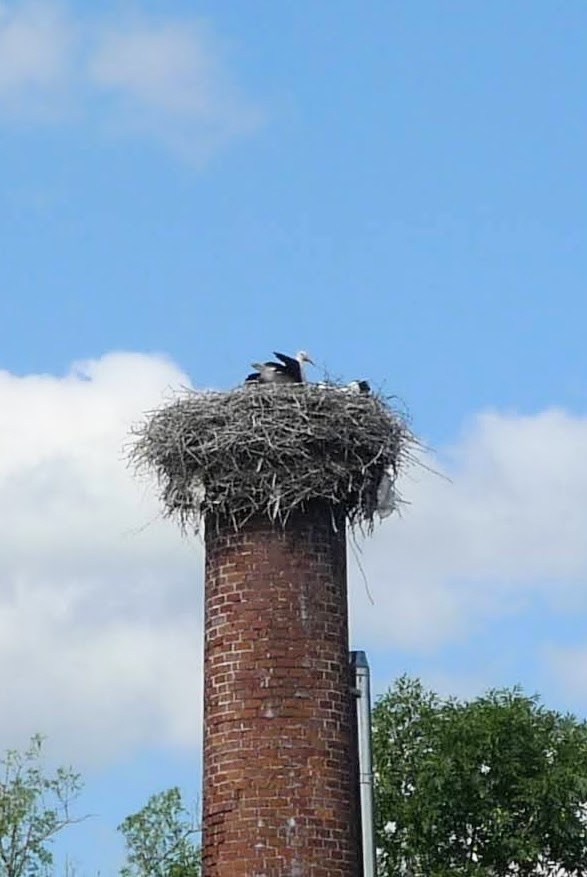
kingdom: Animalia
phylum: Chordata
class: Aves
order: Ciconiiformes
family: Ciconiidae
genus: Ciconia
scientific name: Ciconia ciconia
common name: White stork
